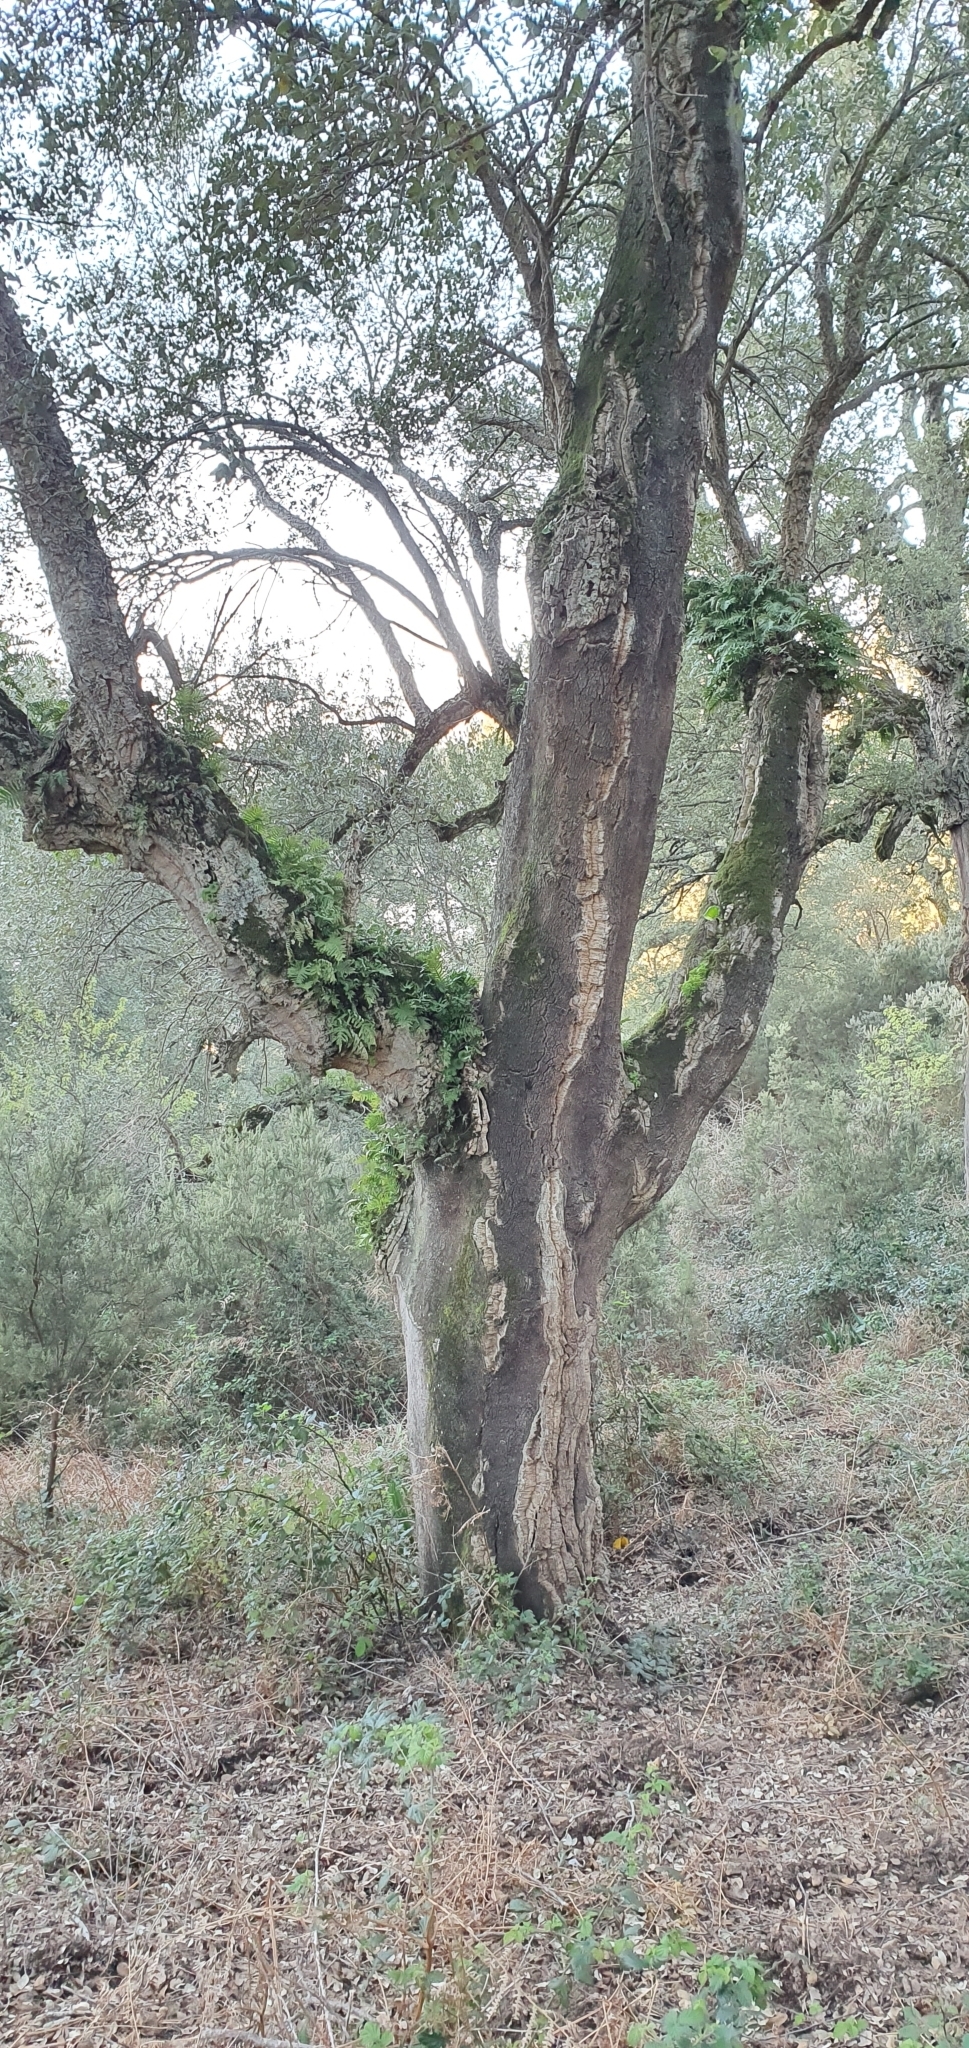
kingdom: Plantae
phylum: Tracheophyta
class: Polypodiopsida
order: Polypodiales
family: Polypodiaceae
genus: Polypodium
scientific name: Polypodium cambricum
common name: Southern polypody
